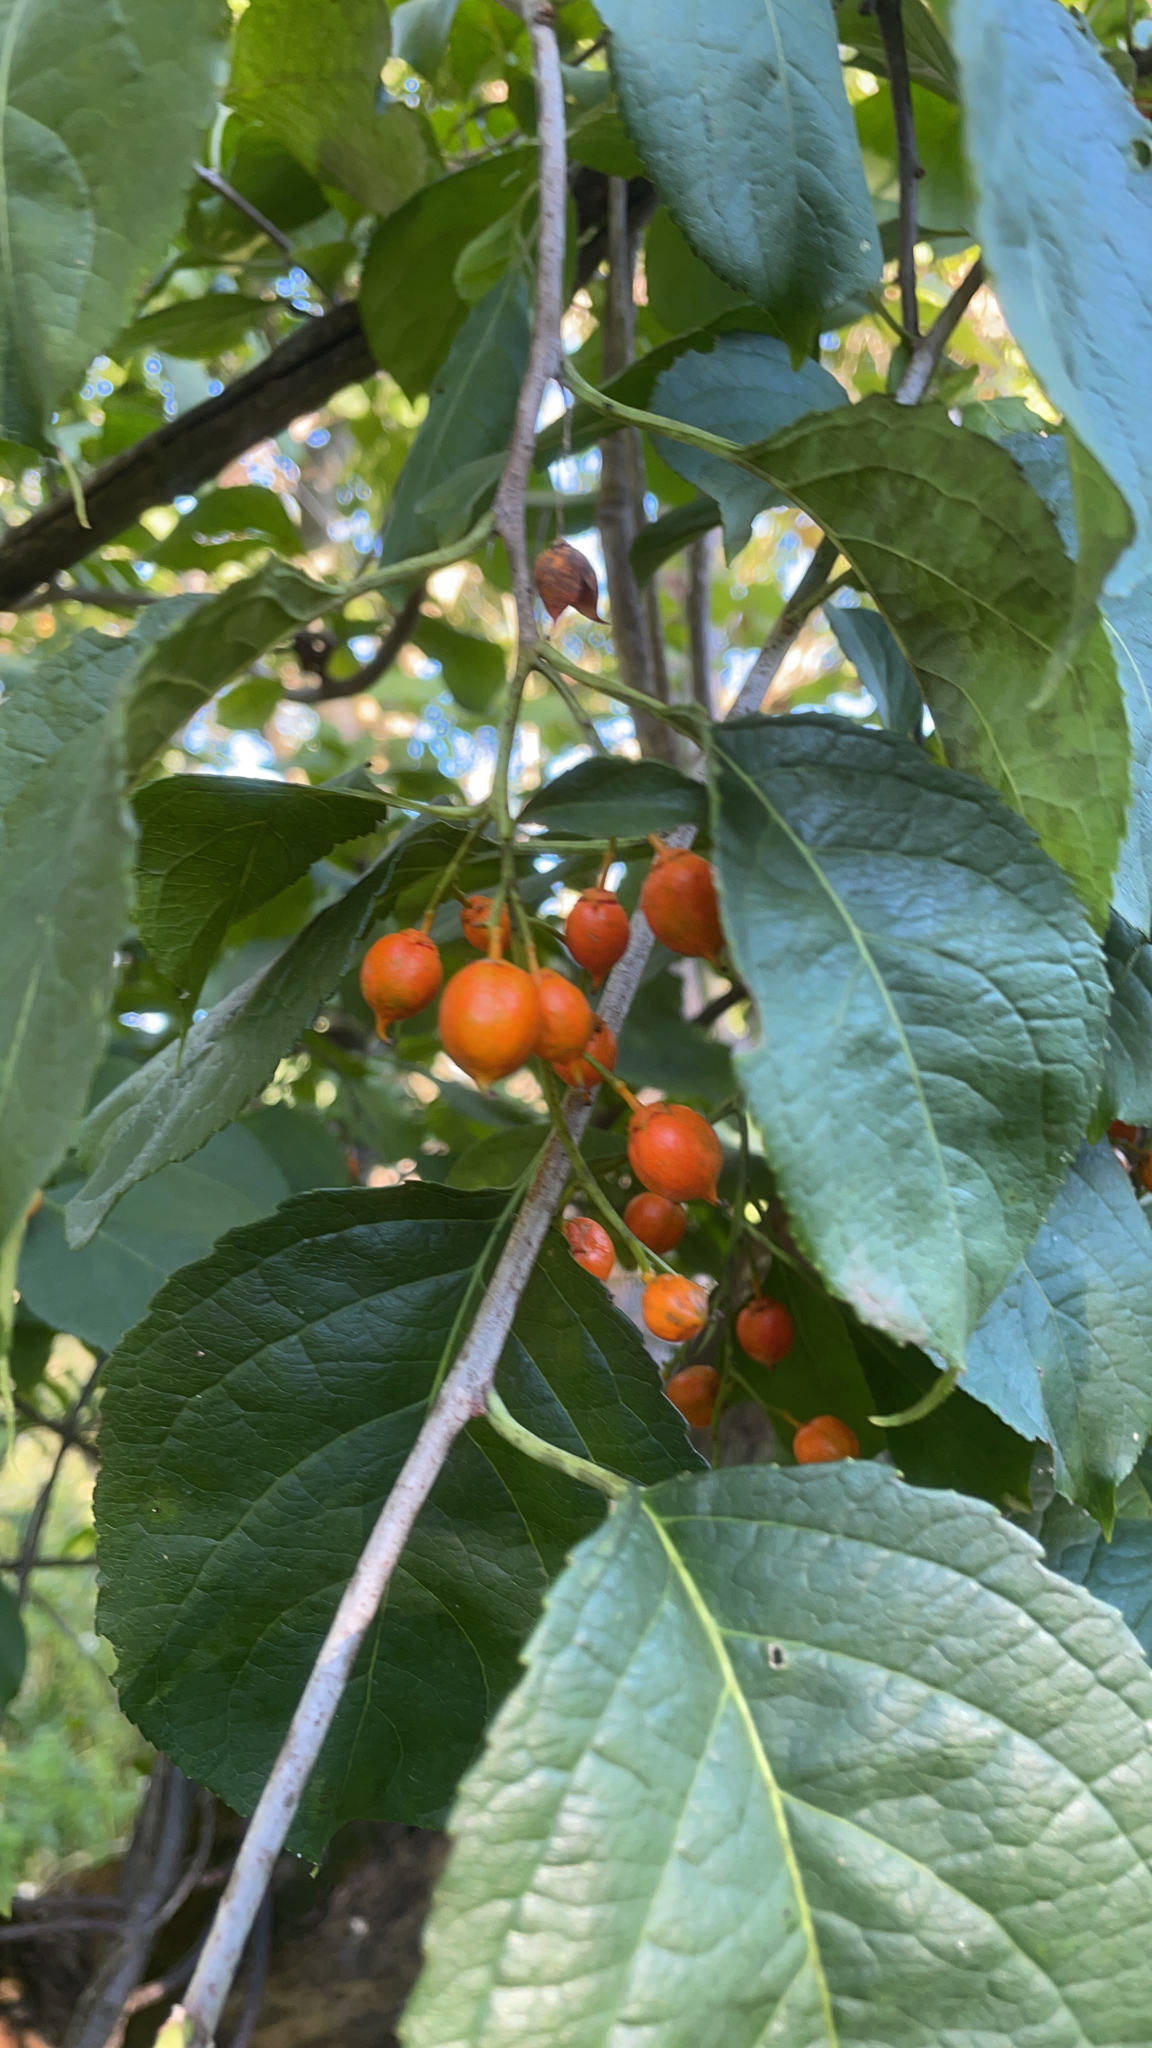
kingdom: Plantae
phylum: Tracheophyta
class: Magnoliopsida
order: Celastrales
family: Celastraceae
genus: Celastrus
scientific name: Celastrus scandens
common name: American bittersweet
